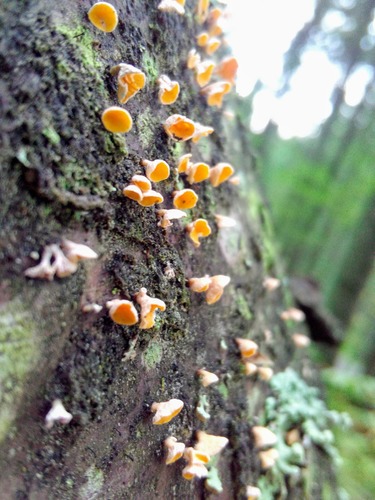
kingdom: Fungi
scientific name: Fungi
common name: Fungi
